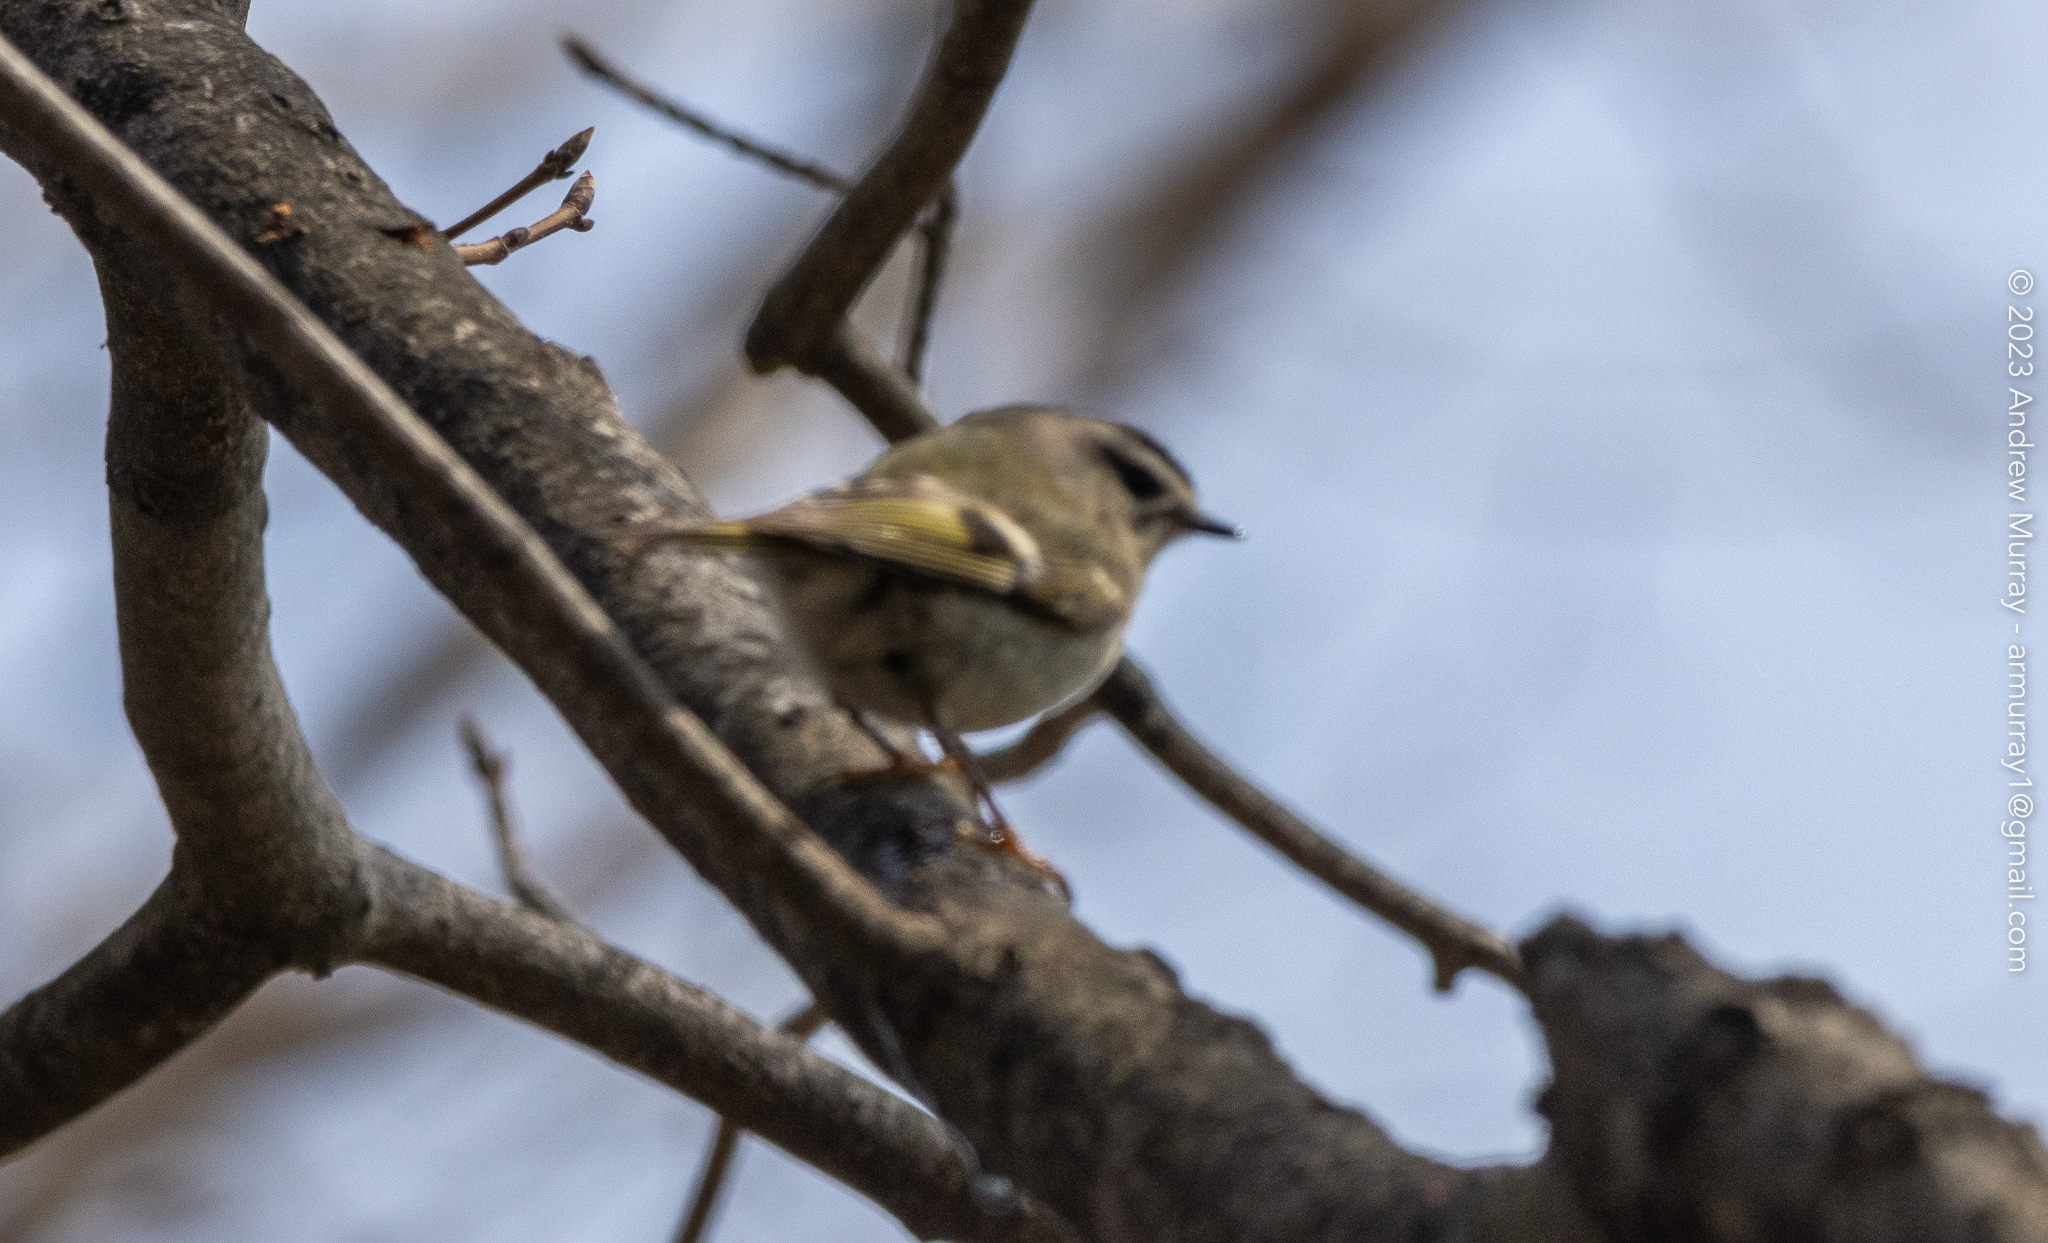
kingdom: Animalia
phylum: Chordata
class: Aves
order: Passeriformes
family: Regulidae
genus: Regulus
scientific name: Regulus satrapa
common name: Golden-crowned kinglet
